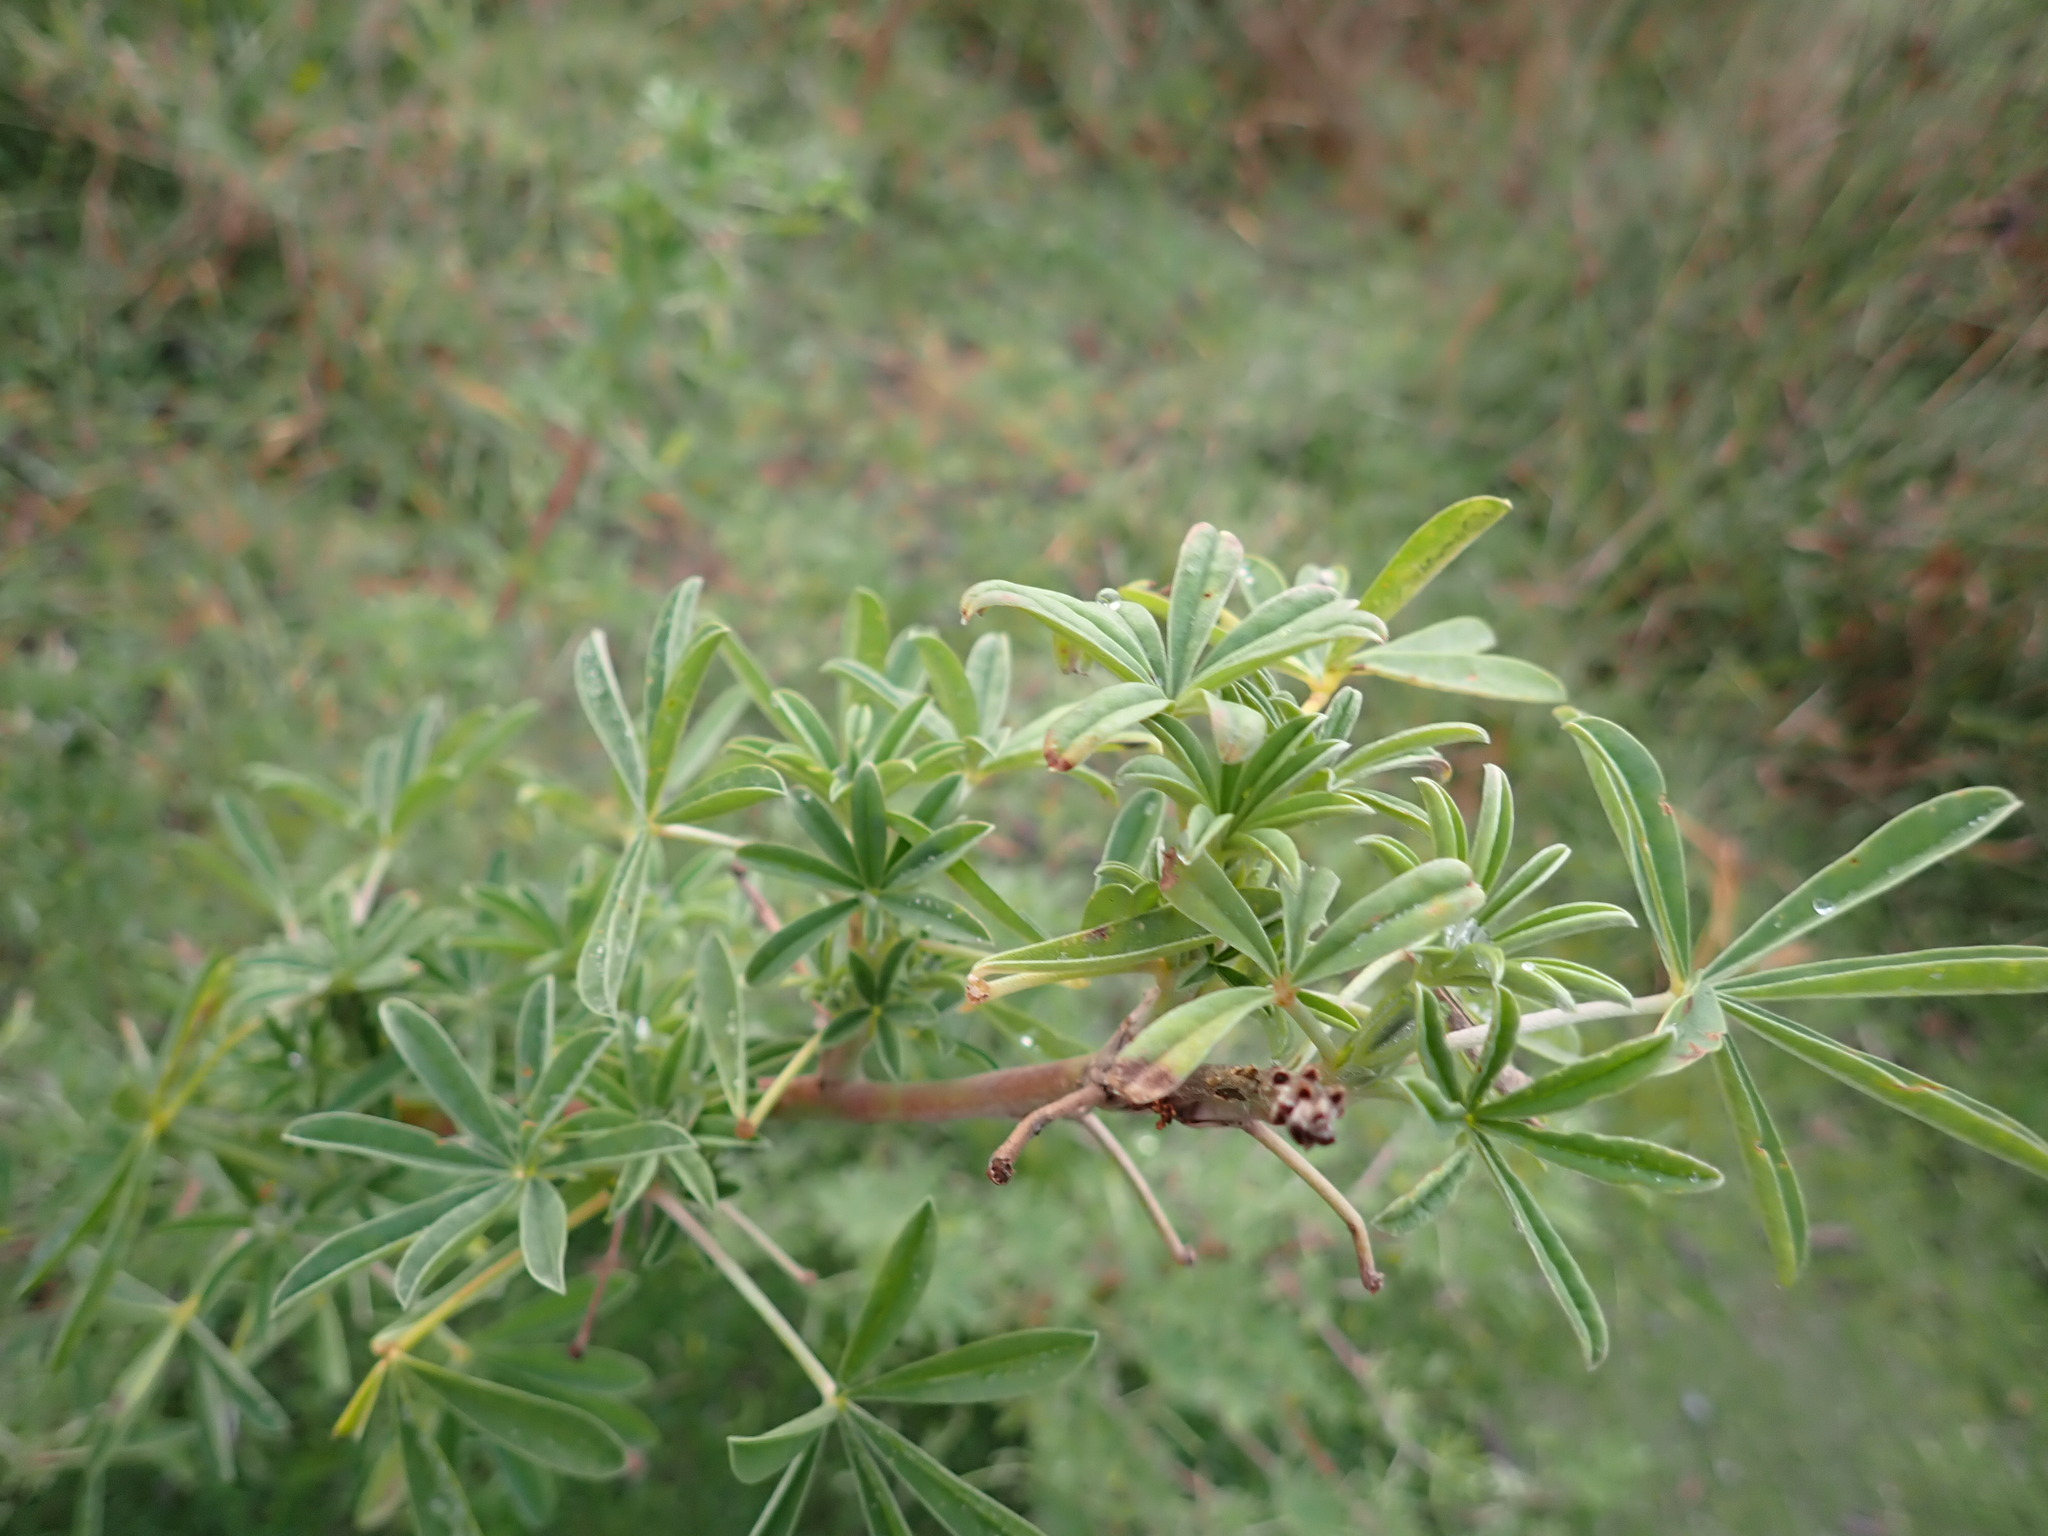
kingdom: Plantae
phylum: Tracheophyta
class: Magnoliopsida
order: Fabales
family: Fabaceae
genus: Lupinus
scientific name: Lupinus arboreus
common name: Yellow bush lupine
